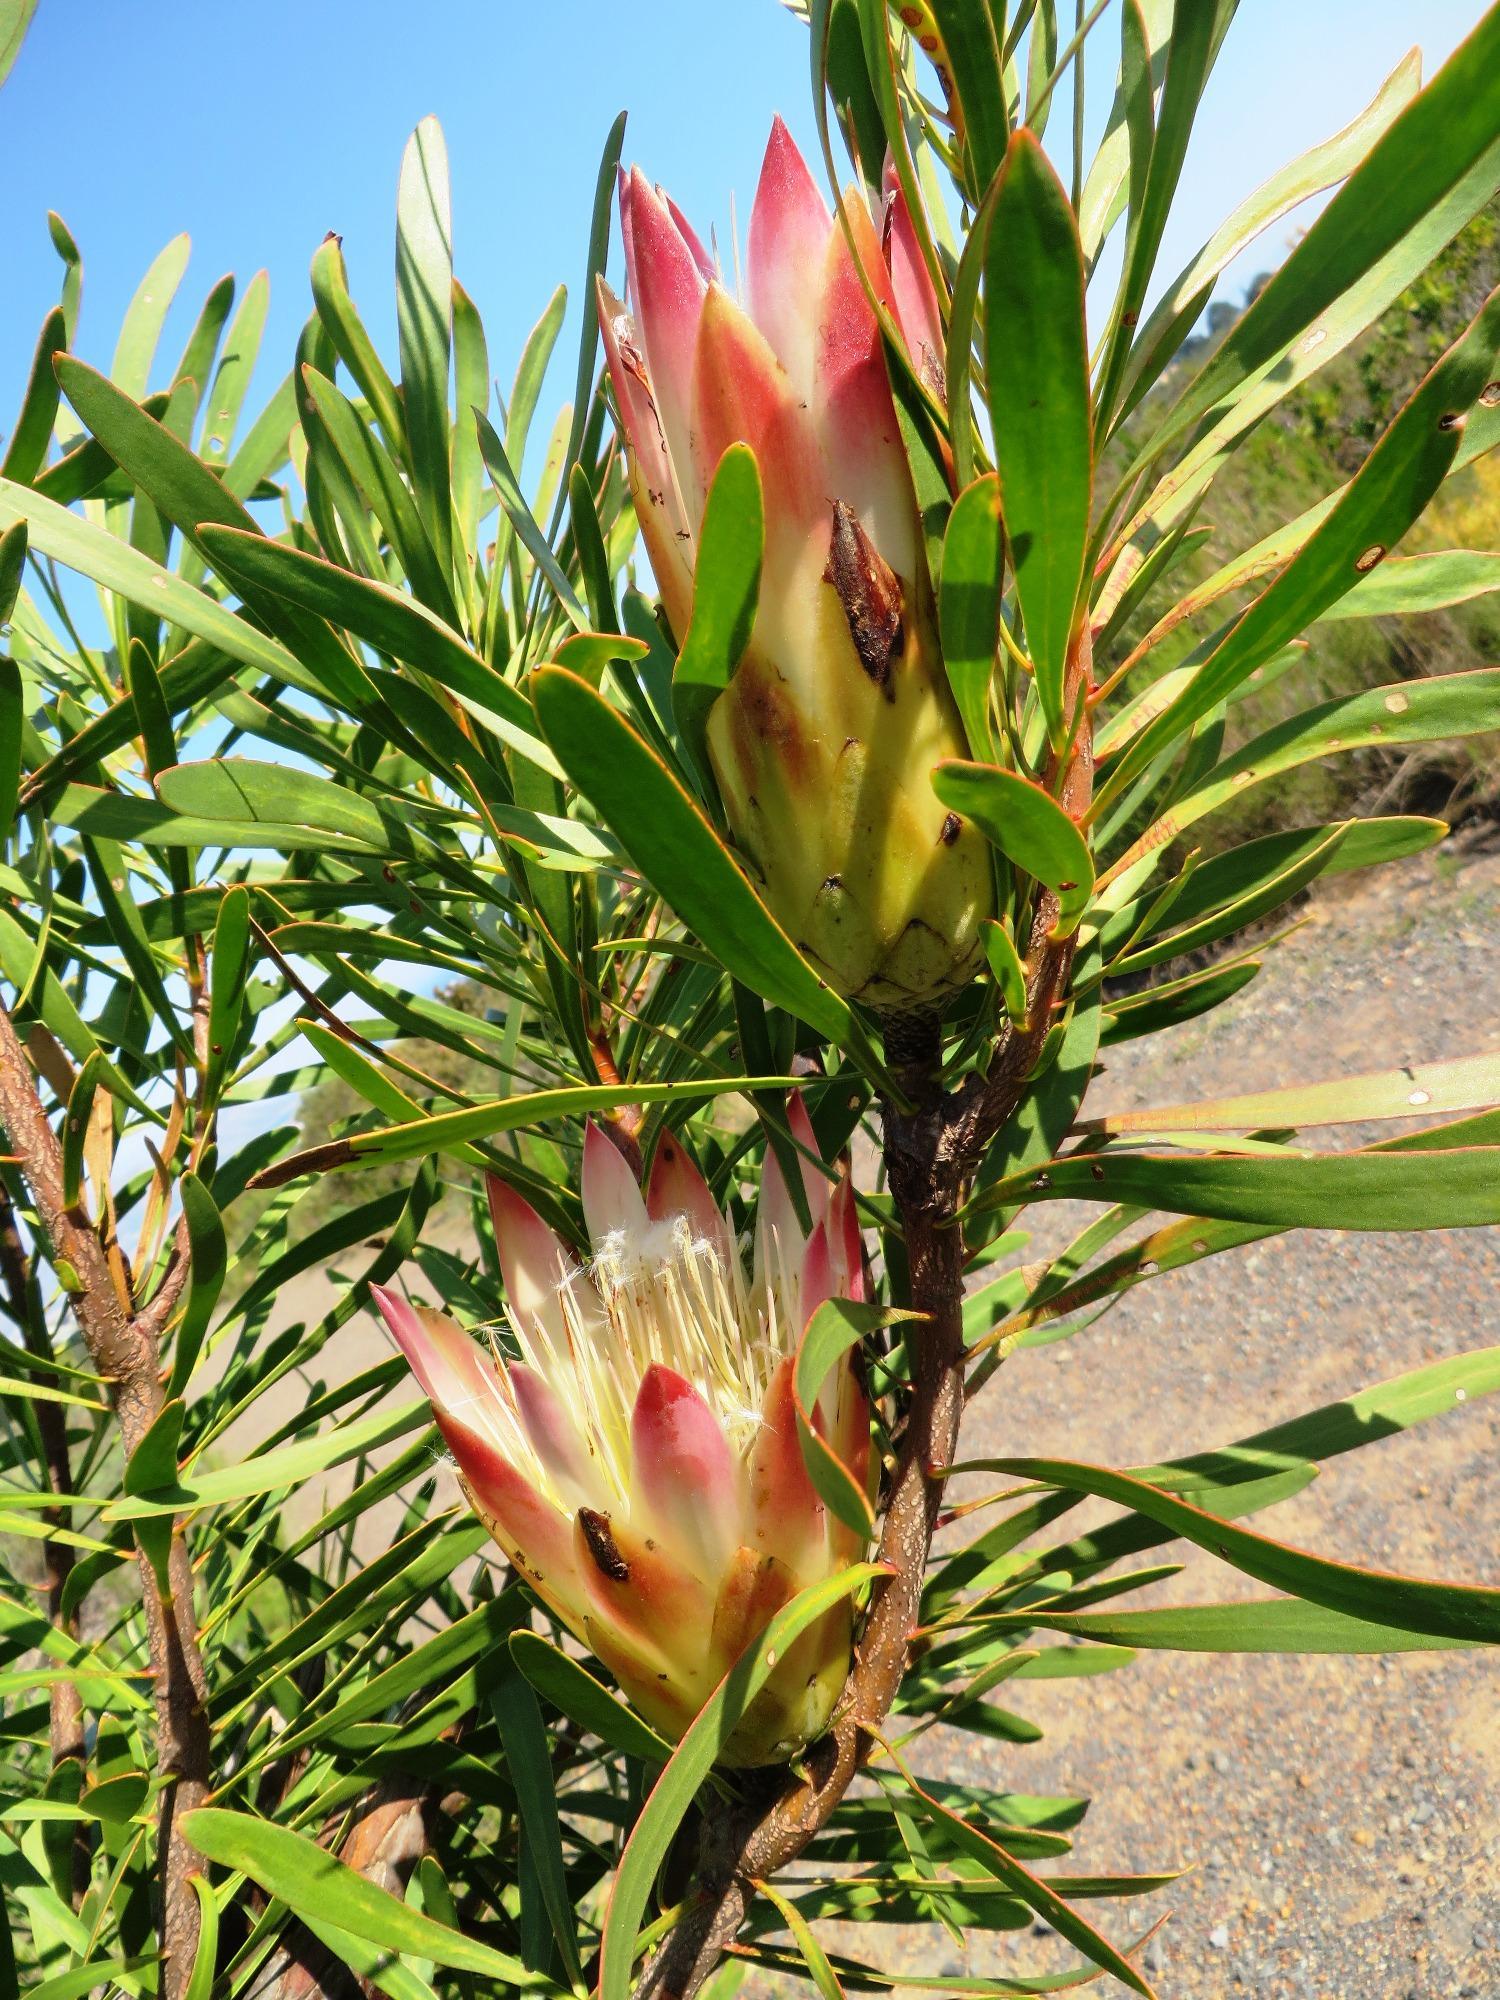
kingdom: Plantae
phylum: Tracheophyta
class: Magnoliopsida
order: Proteales
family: Proteaceae
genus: Protea
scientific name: Protea repens
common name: Sugarbush
